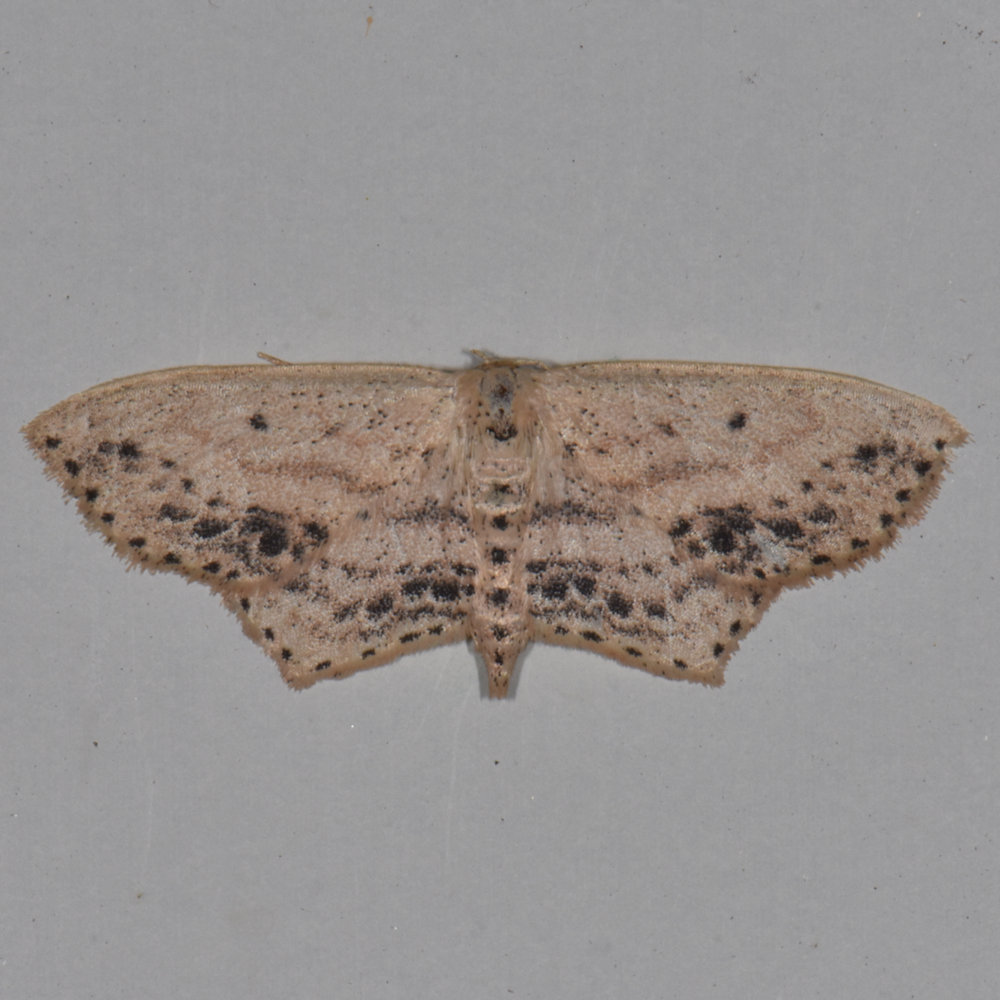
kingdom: Animalia
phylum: Arthropoda
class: Insecta
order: Lepidoptera
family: Geometridae
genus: Scopula
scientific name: Scopula cacuminaria
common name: Frosted tan wave
